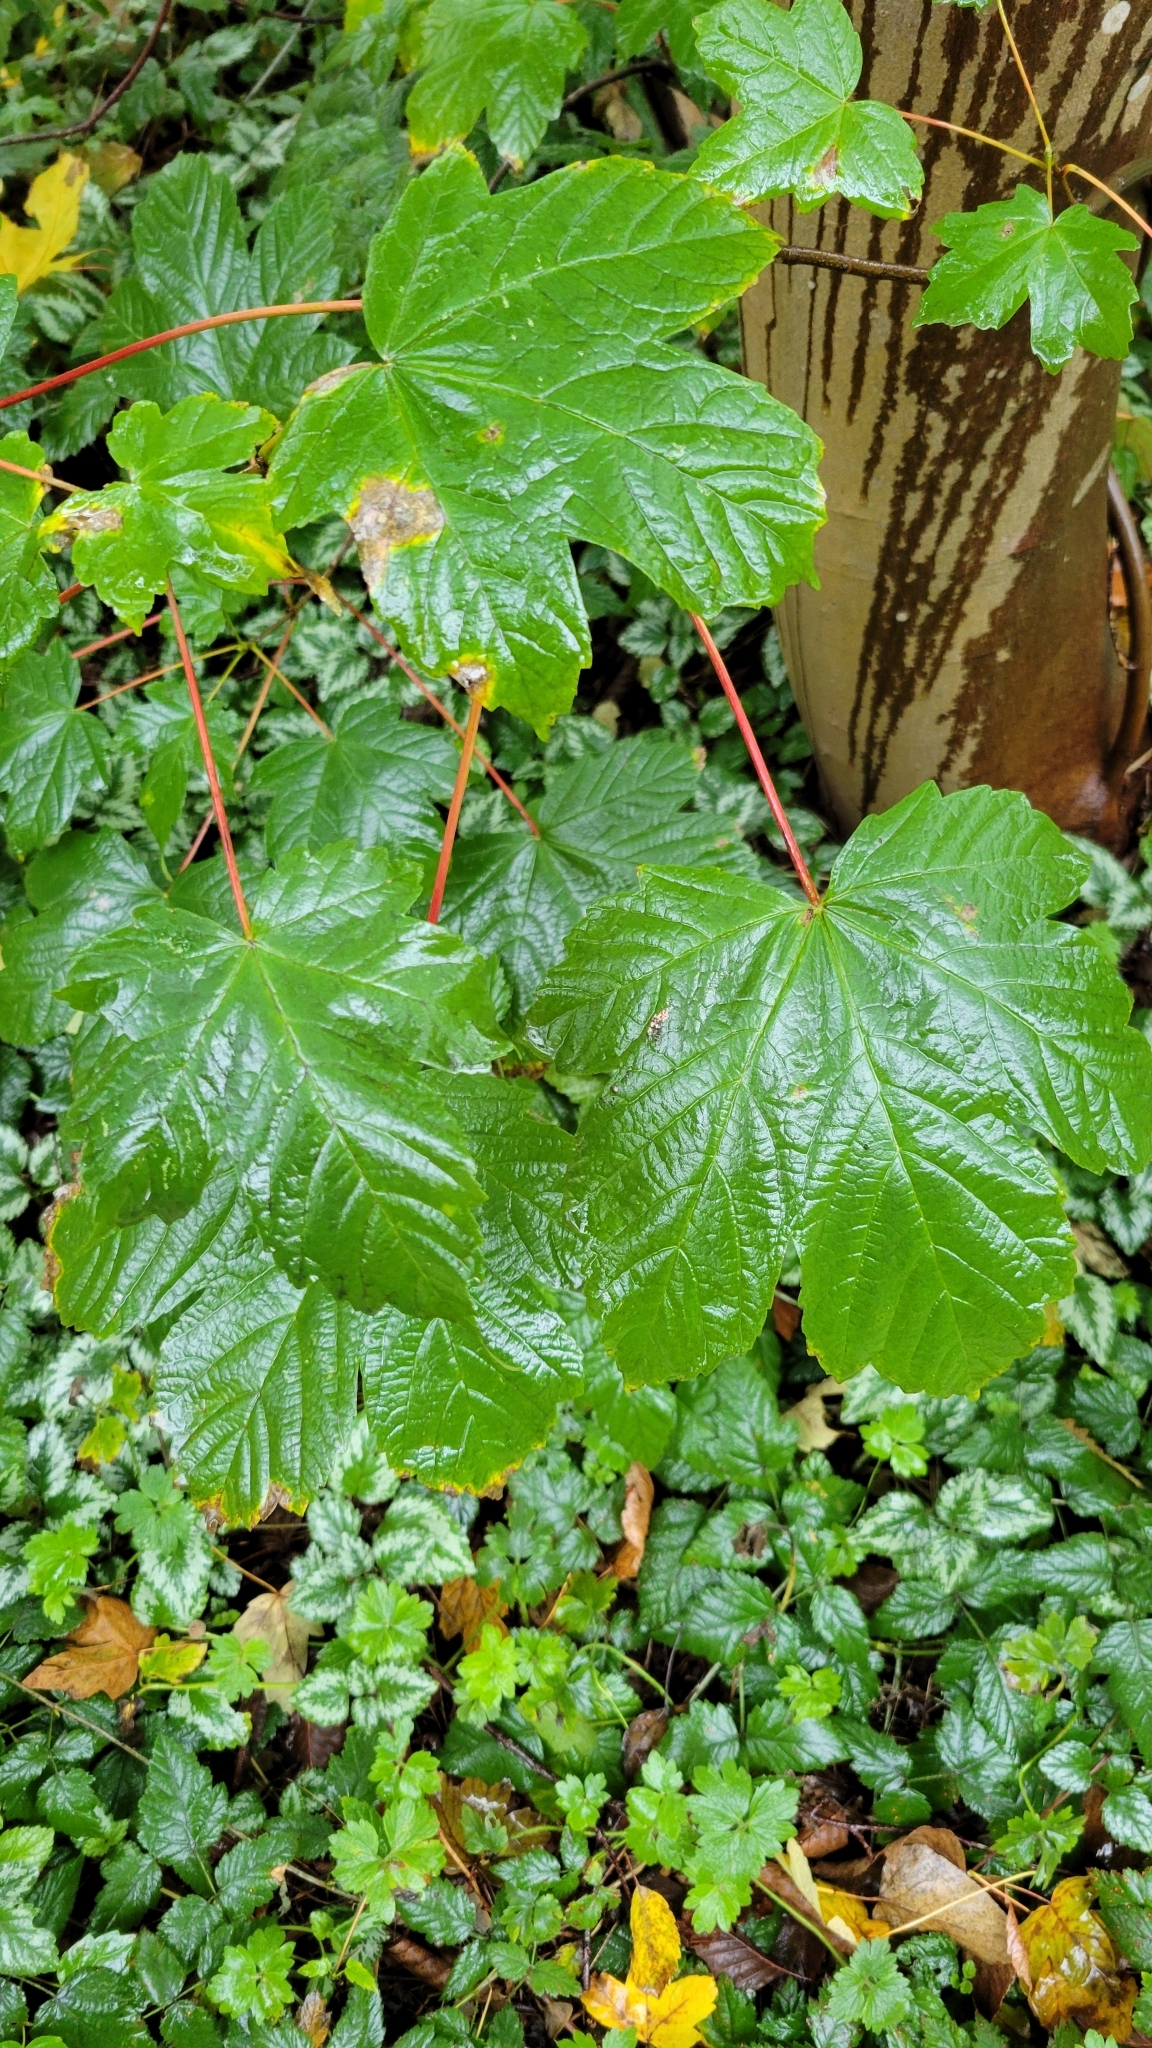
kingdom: Plantae
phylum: Tracheophyta
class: Magnoliopsida
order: Sapindales
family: Sapindaceae
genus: Acer
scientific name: Acer pseudoplatanus
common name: Sycamore
